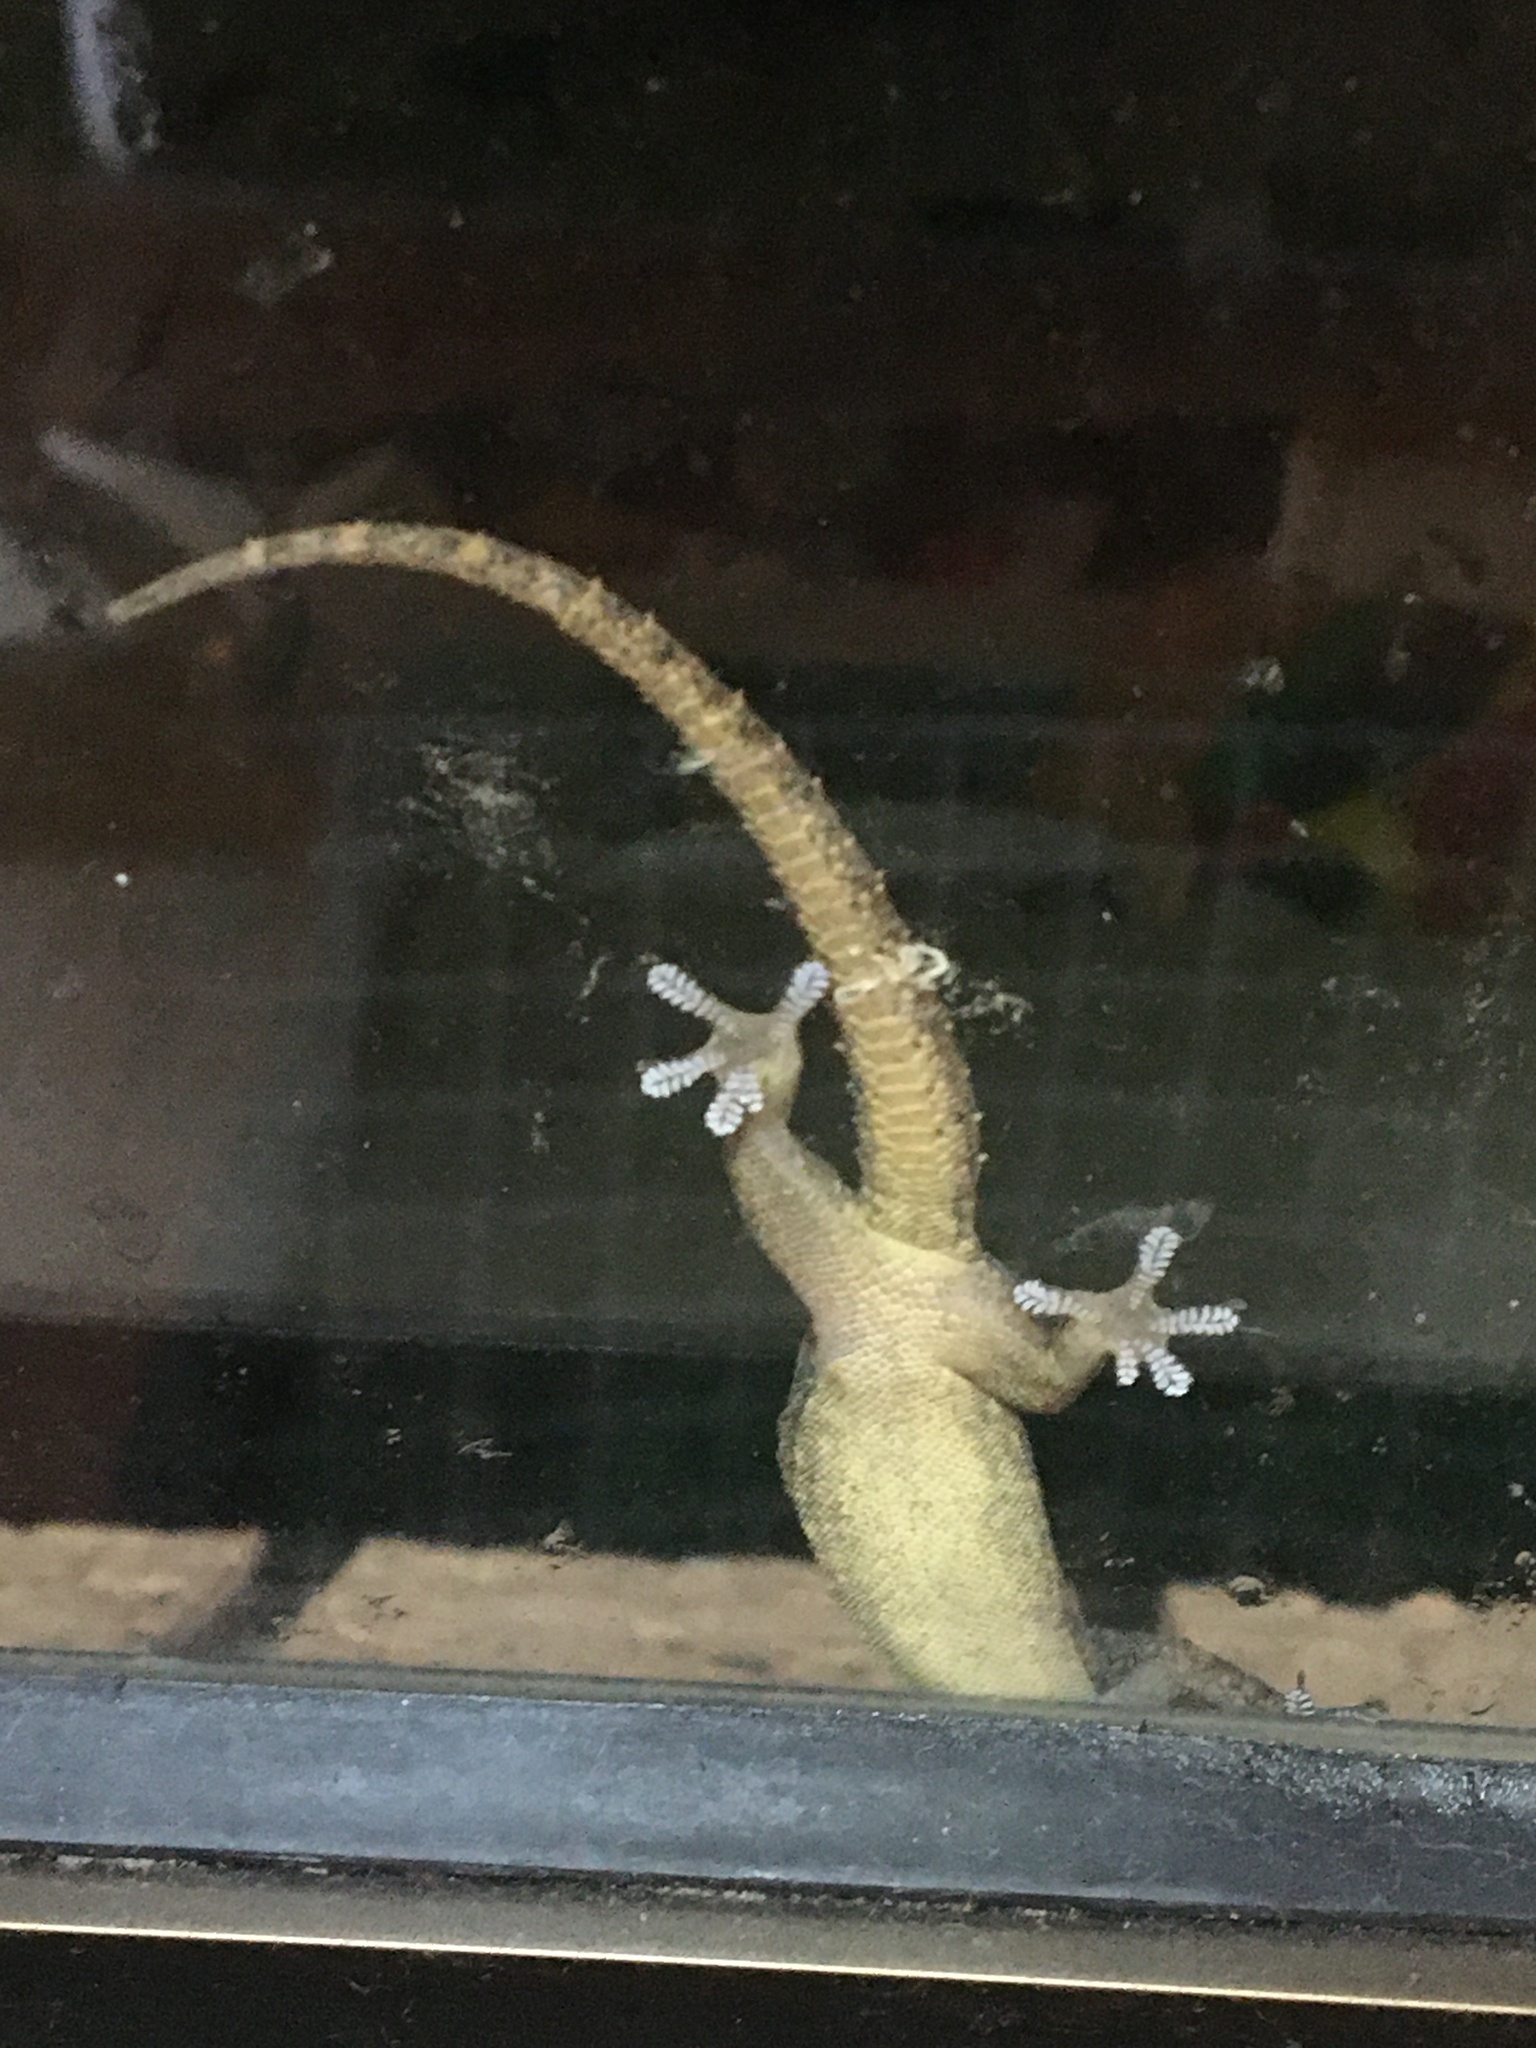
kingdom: Animalia
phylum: Chordata
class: Squamata
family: Gekkonidae
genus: Hemidactylus
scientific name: Hemidactylus frenatus
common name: Common house gecko
